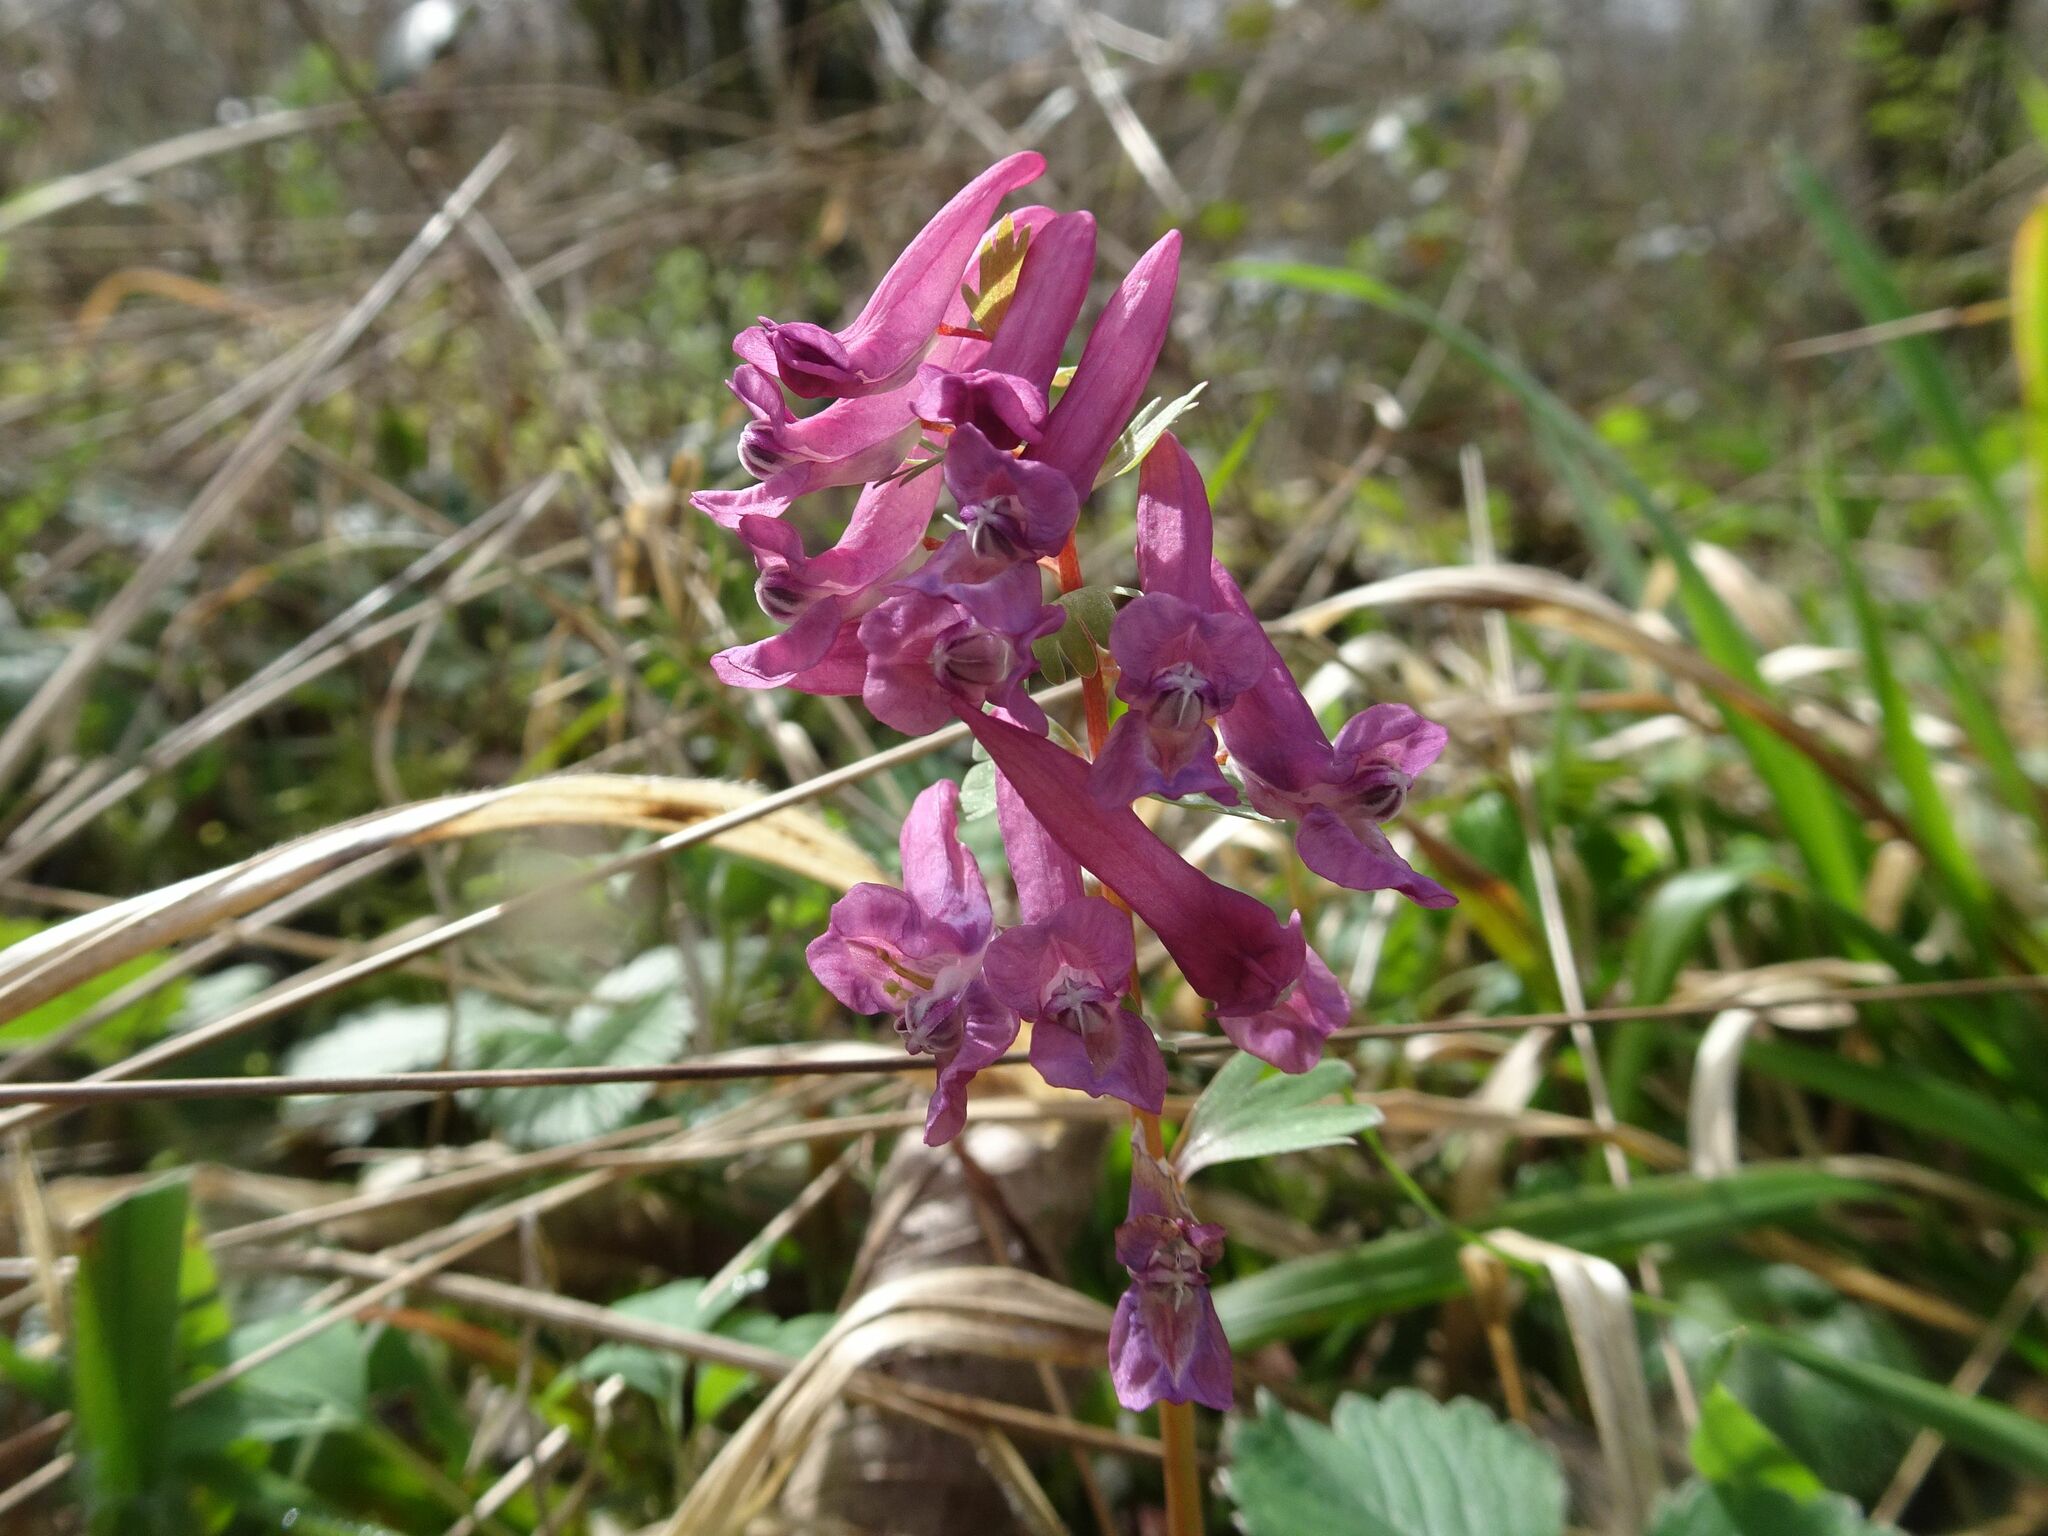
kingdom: Plantae
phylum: Tracheophyta
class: Magnoliopsida
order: Ranunculales
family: Papaveraceae
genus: Corydalis
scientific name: Corydalis solida
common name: Bird-in-a-bush
